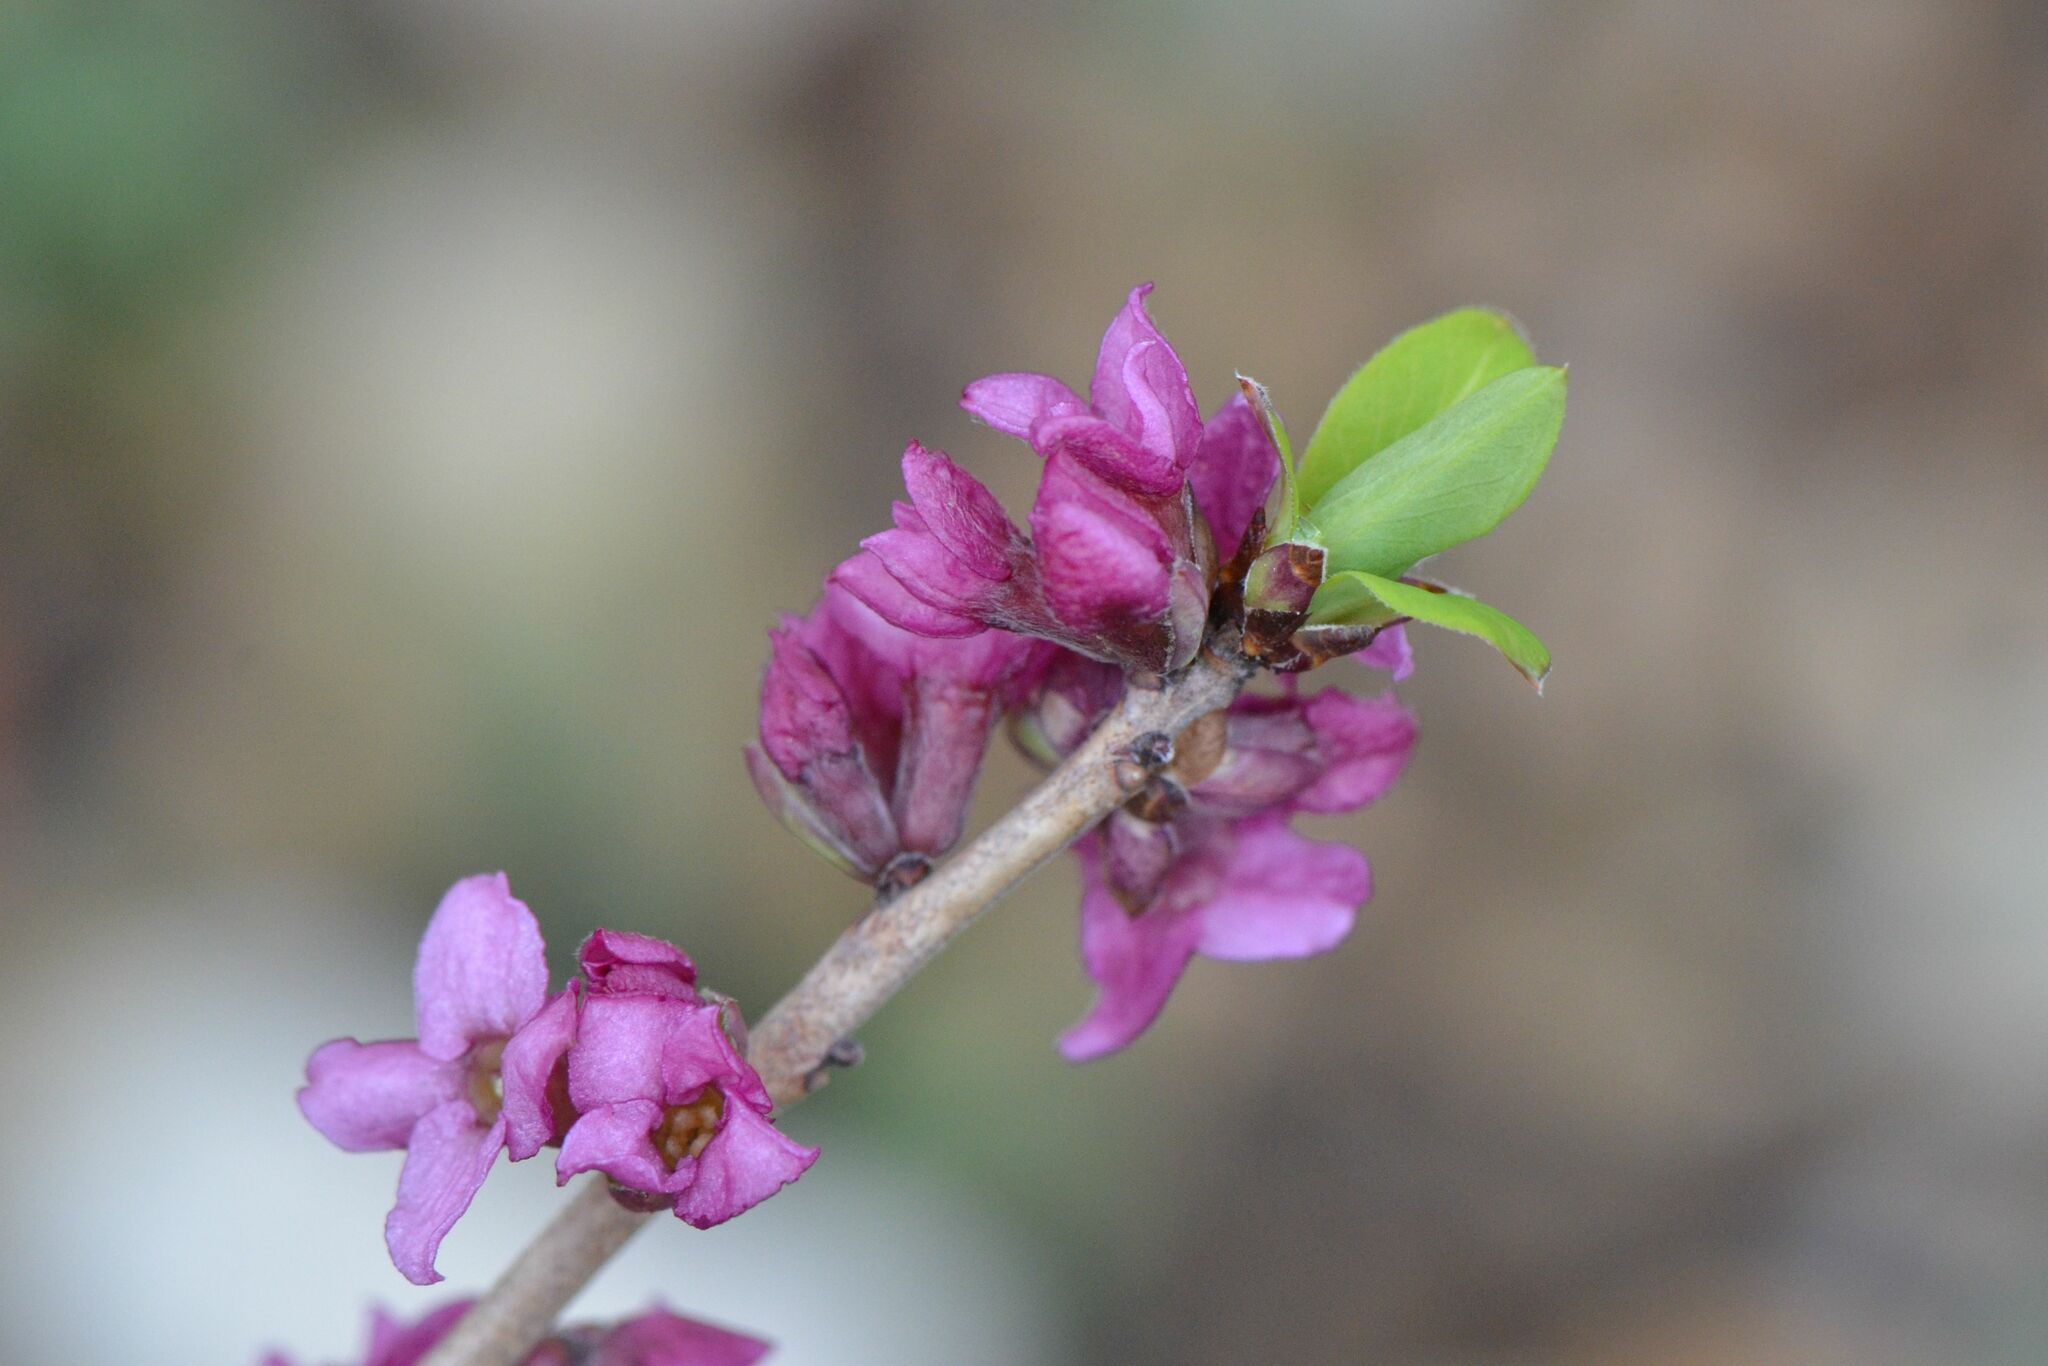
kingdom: Plantae
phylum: Tracheophyta
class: Magnoliopsida
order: Malvales
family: Thymelaeaceae
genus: Daphne
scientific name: Daphne mezereum
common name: Mezereon
